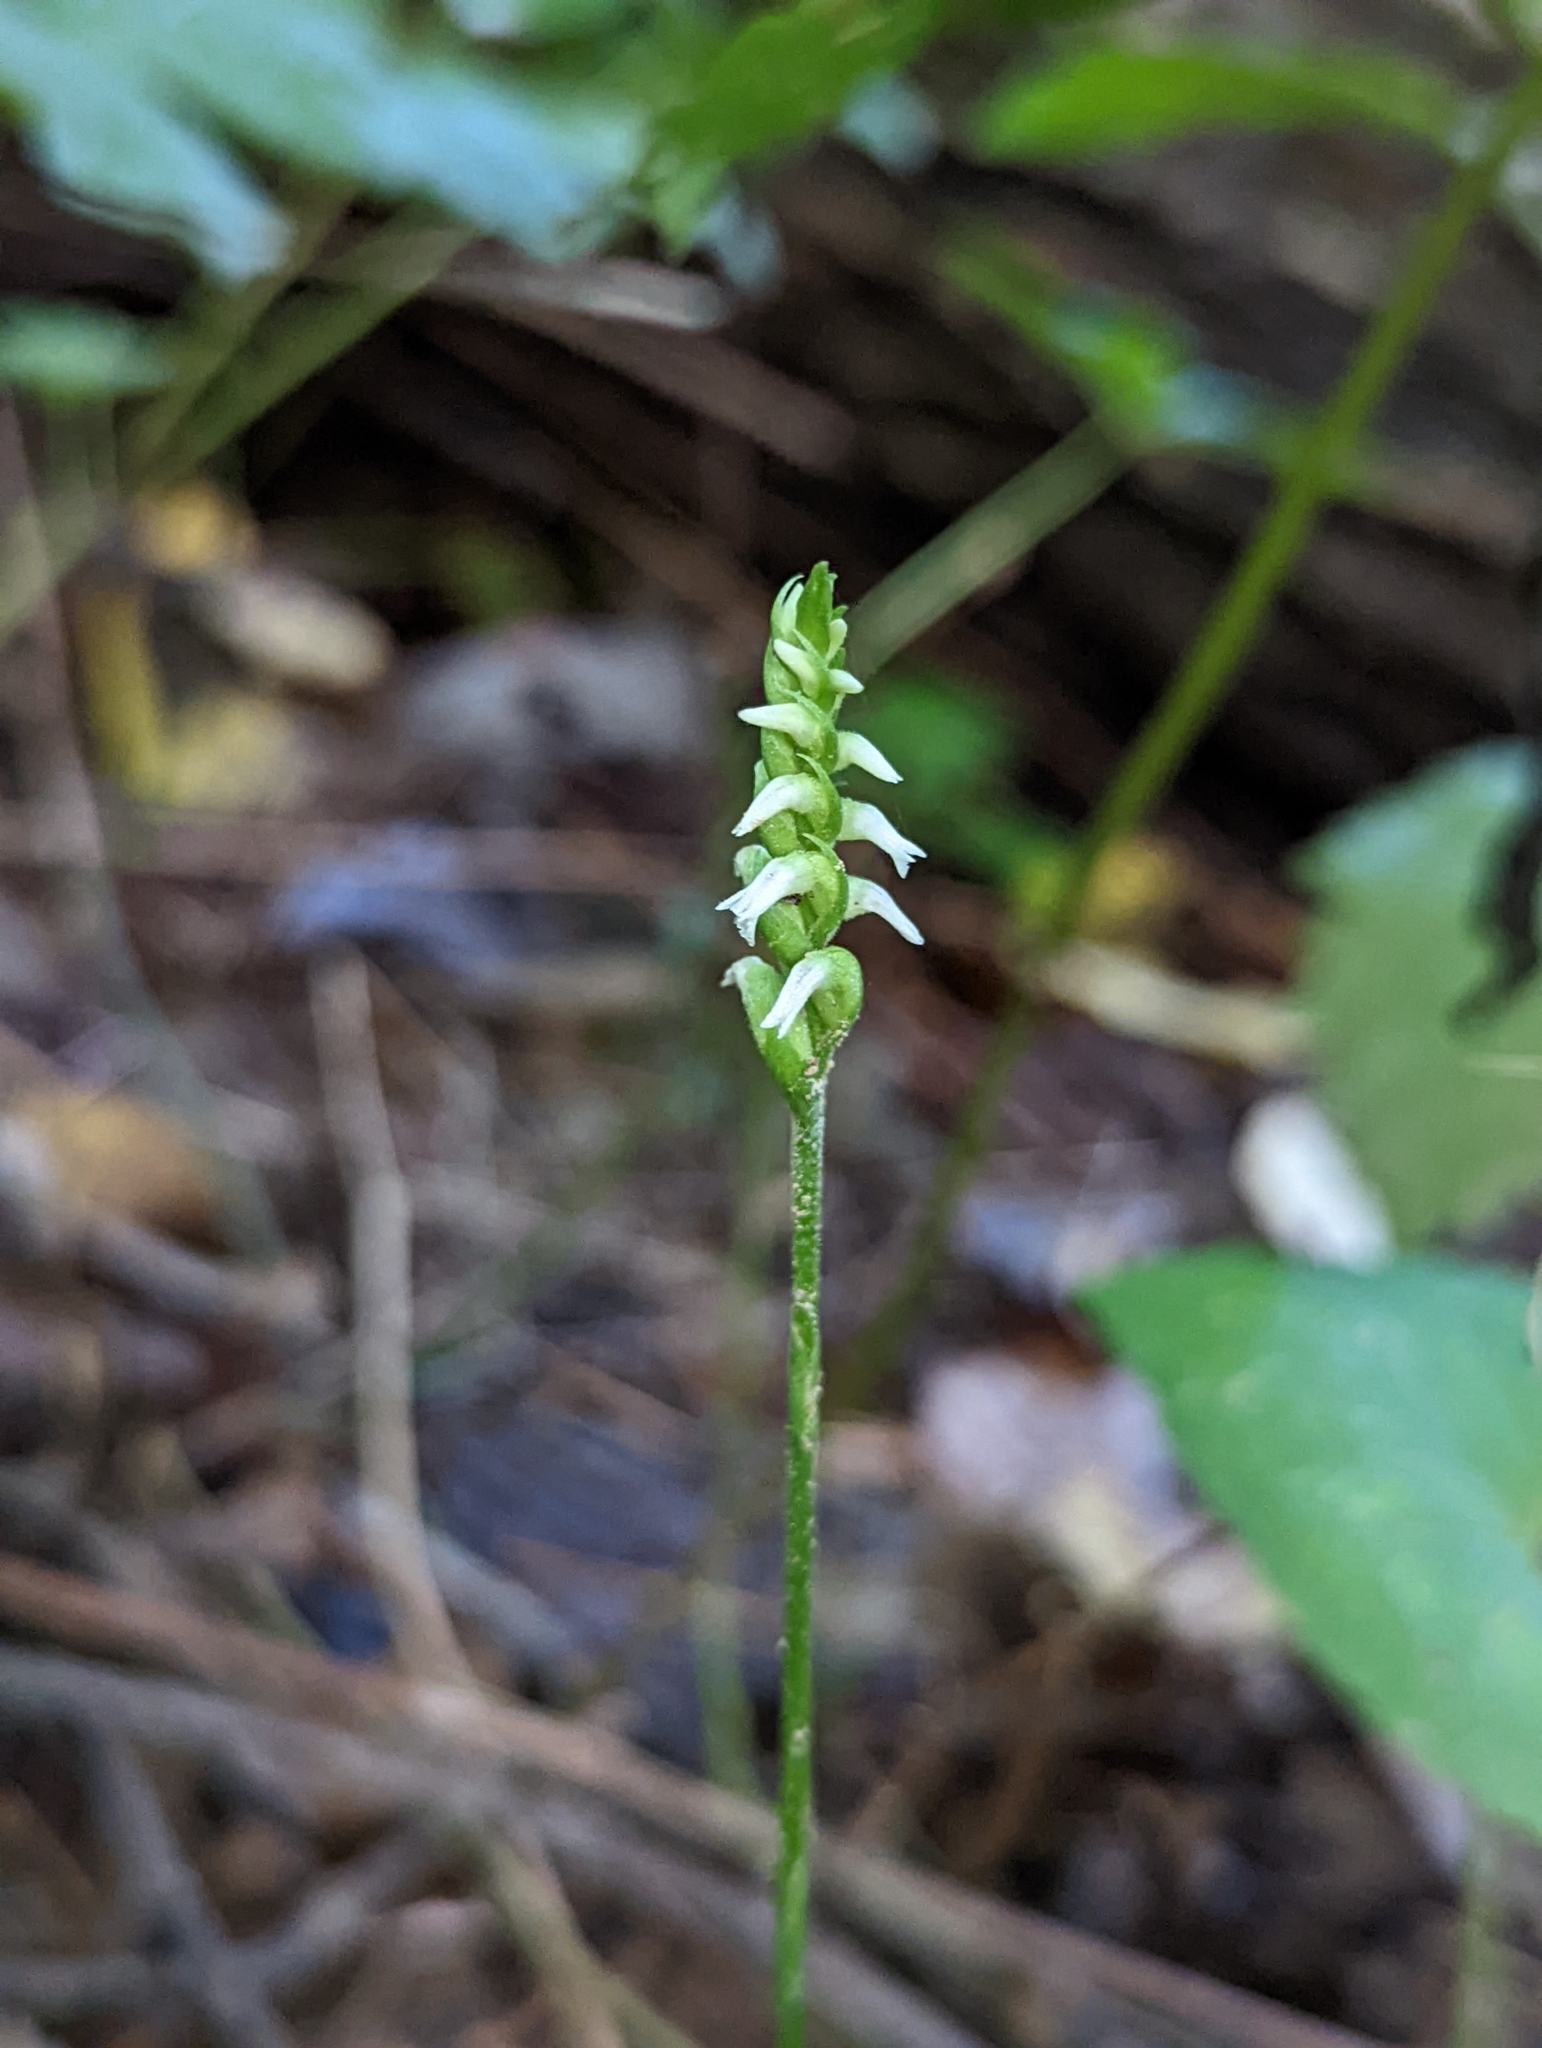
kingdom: Plantae
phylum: Tracheophyta
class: Liliopsida
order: Asparagales
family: Orchidaceae
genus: Spiranthes
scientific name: Spiranthes ovalis
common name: October ladies'-tresses
